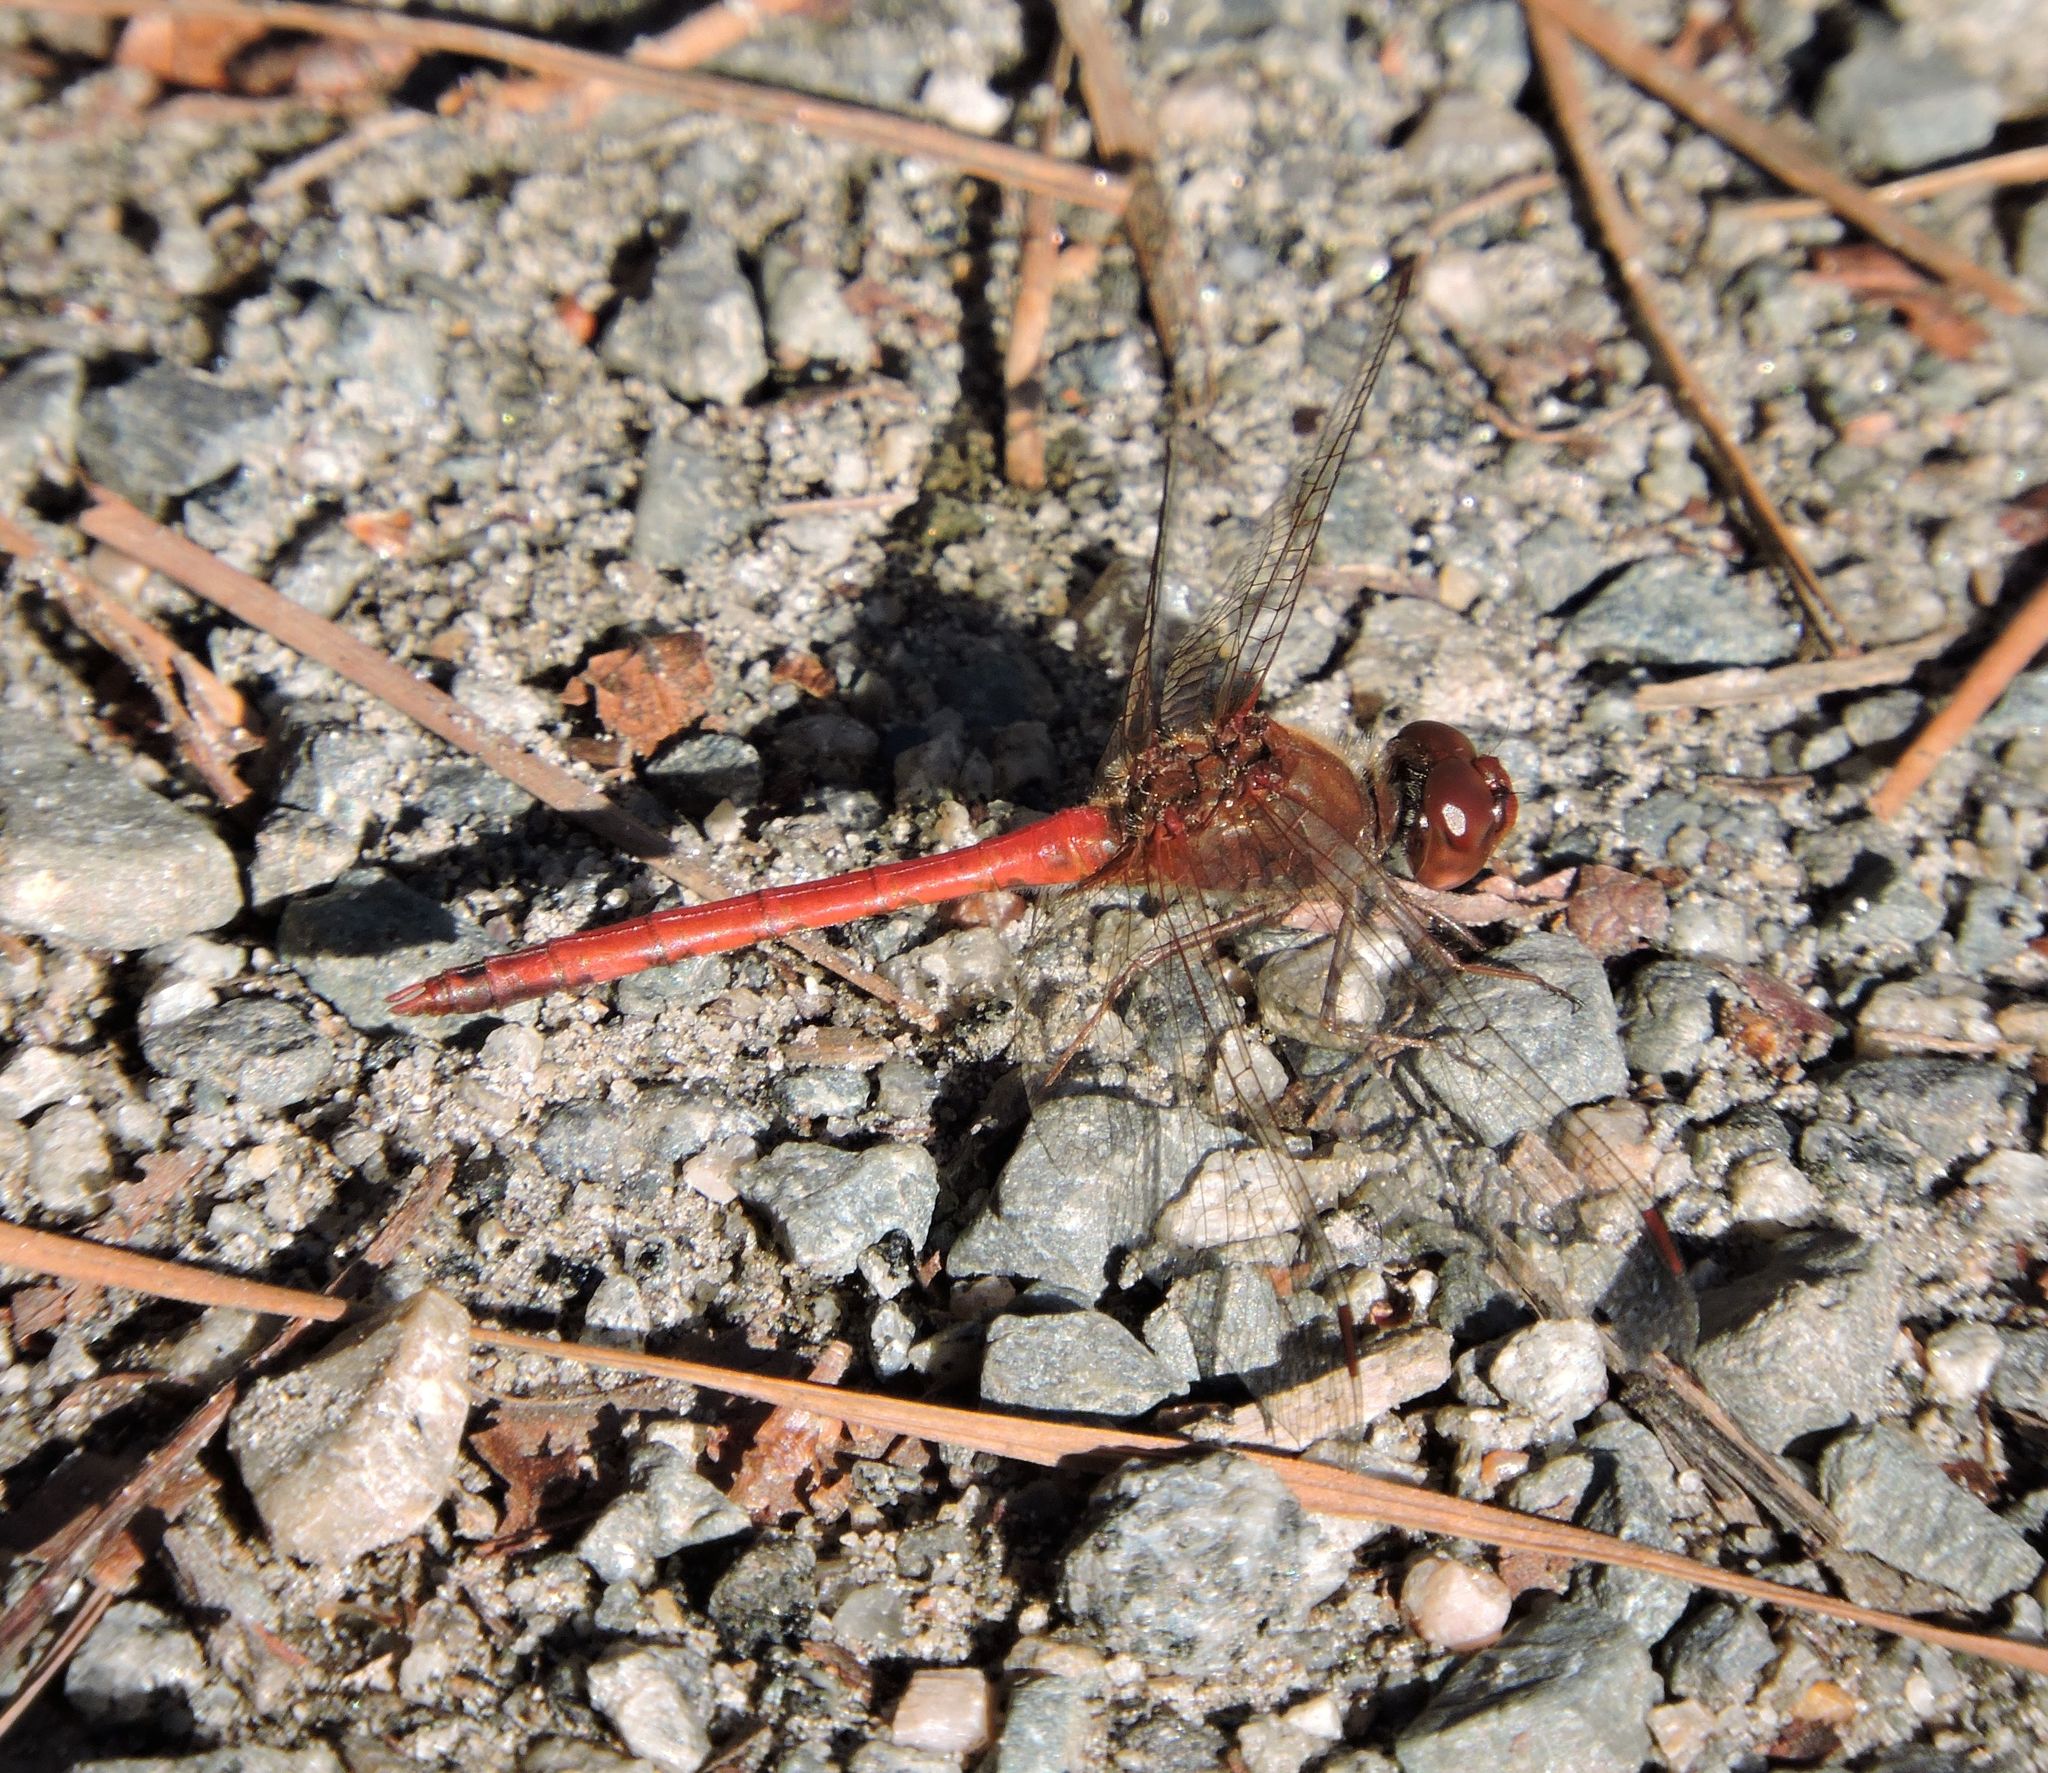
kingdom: Animalia
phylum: Arthropoda
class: Insecta
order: Odonata
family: Libellulidae
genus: Sympetrum
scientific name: Sympetrum vicinum
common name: Autumn meadowhawk
